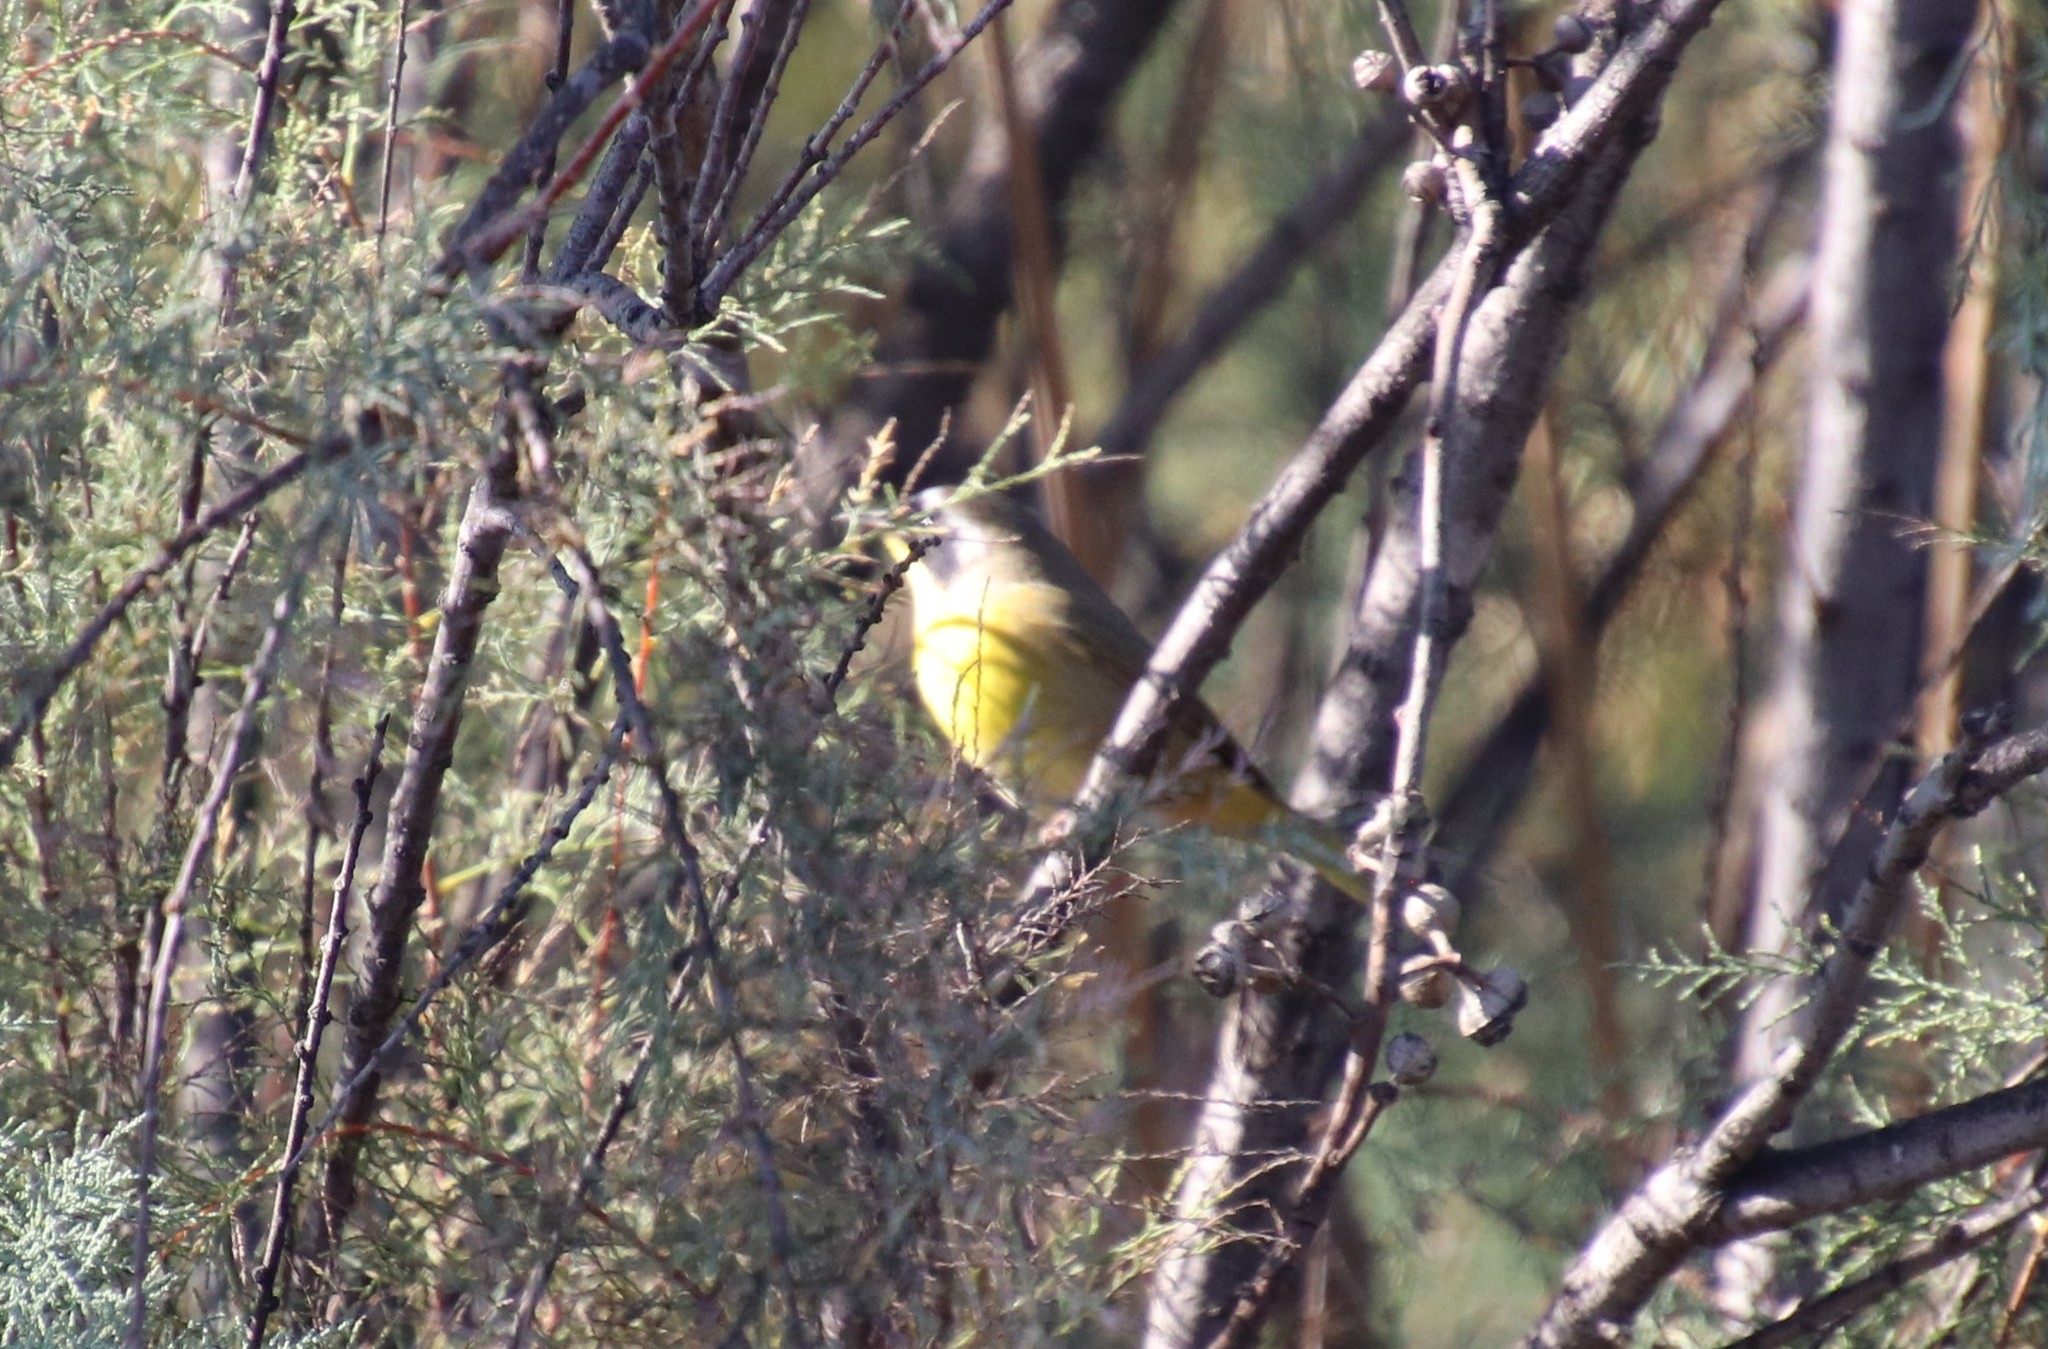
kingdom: Animalia
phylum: Chordata
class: Aves
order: Passeriformes
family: Parulidae
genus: Geothlypis
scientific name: Geothlypis trichas
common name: Common yellowthroat
